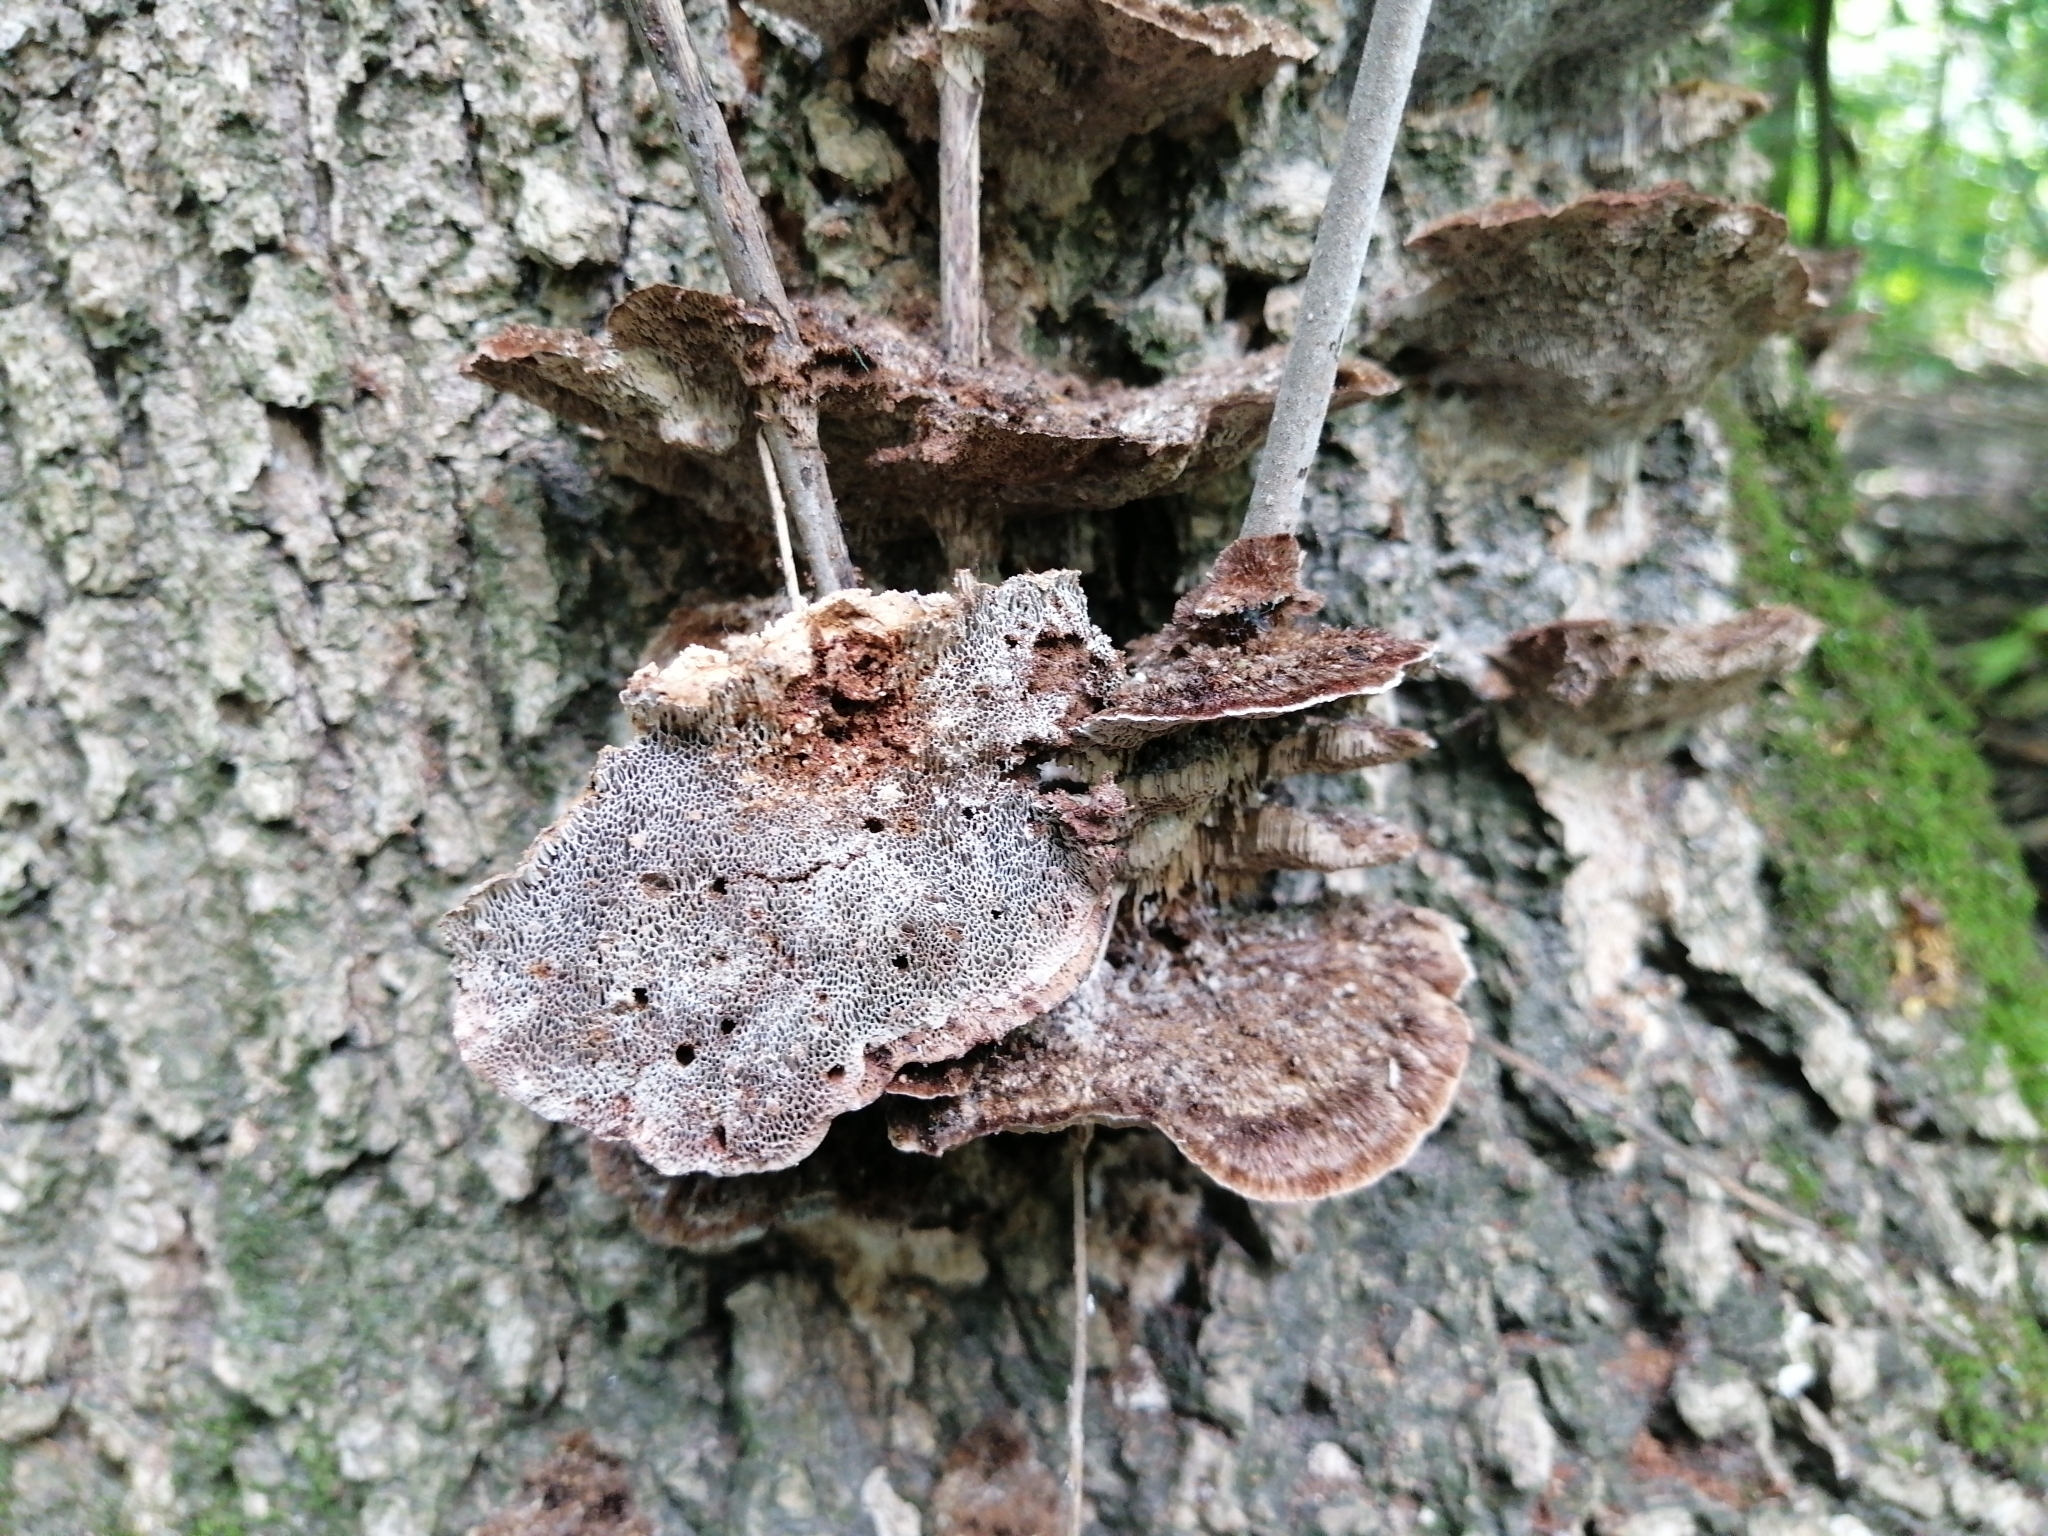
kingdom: Fungi
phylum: Basidiomycota
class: Agaricomycetes
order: Polyporales
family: Polyporaceae
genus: Coriolopsis
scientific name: Coriolopsis gallica
